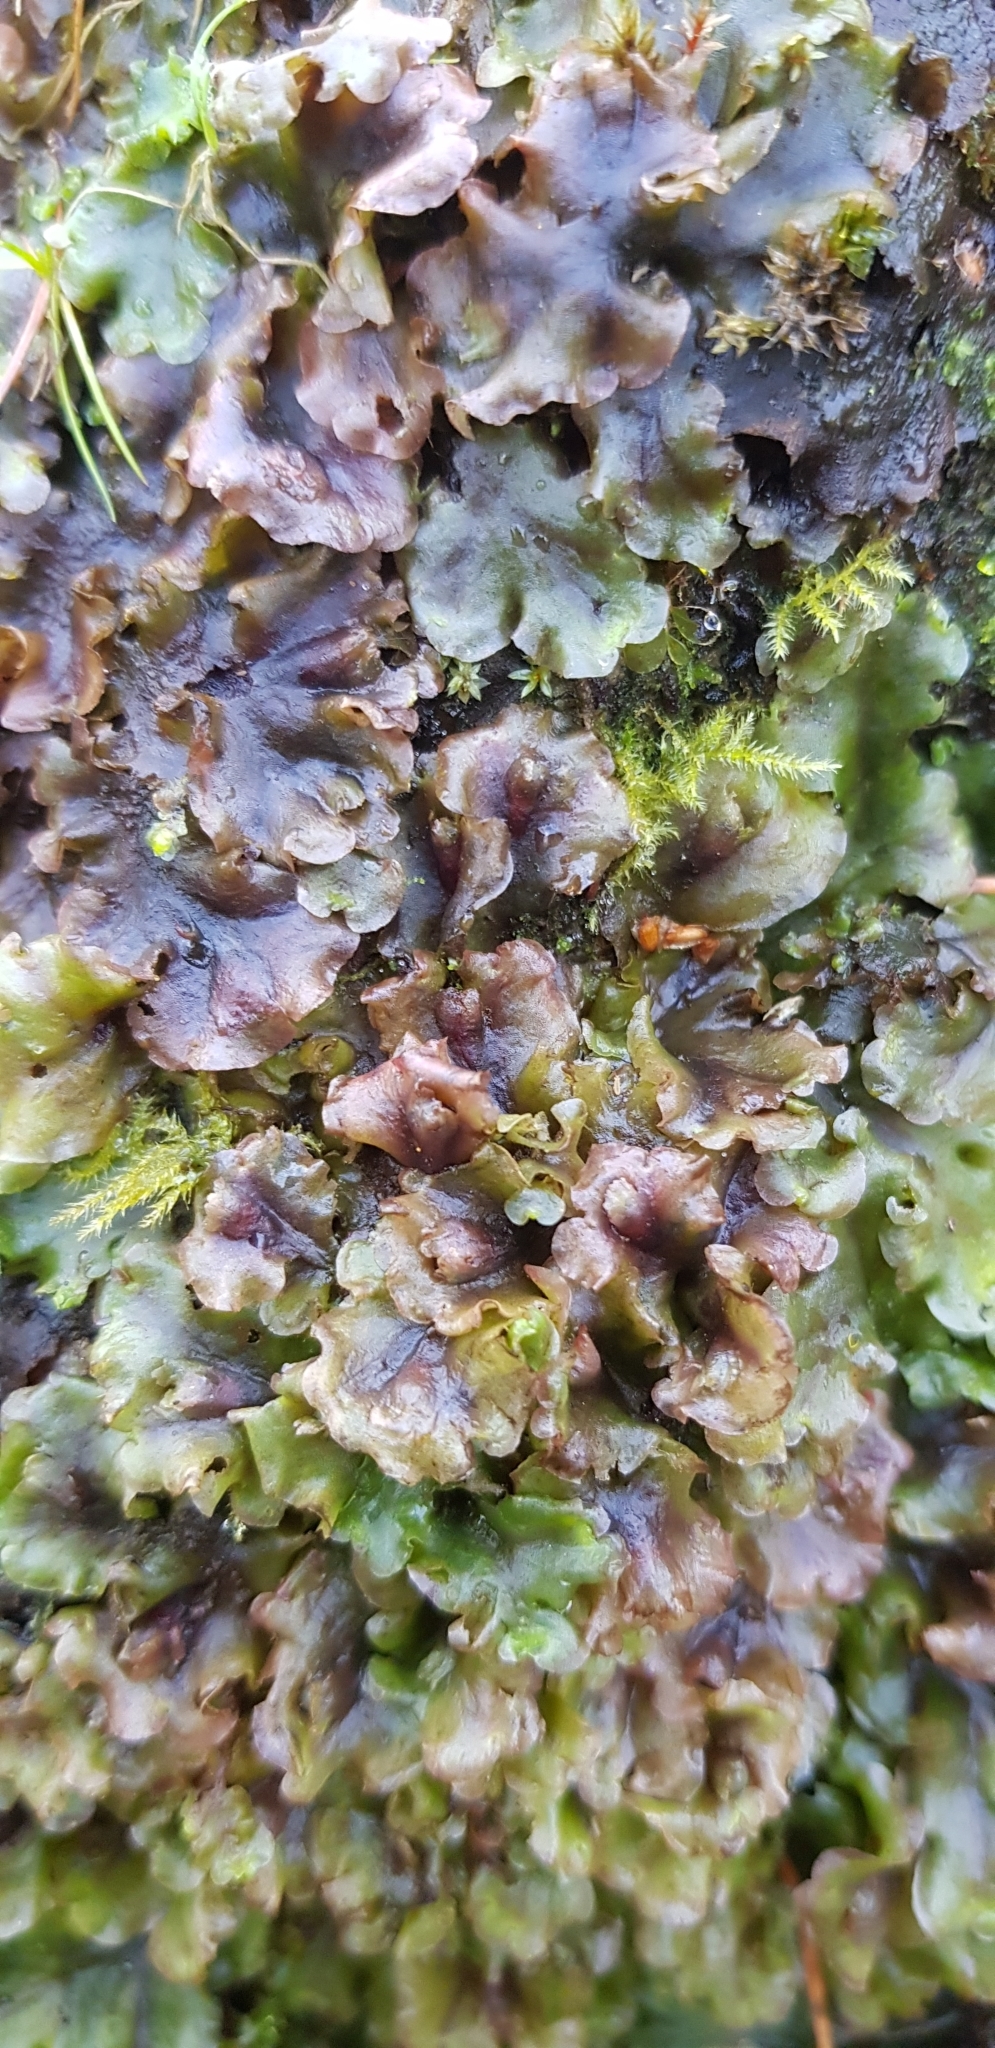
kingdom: Plantae
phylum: Marchantiophyta
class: Jungermanniopsida
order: Pelliales
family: Pelliaceae
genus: Pellia
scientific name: Pellia epiphylla
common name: Common pellia
